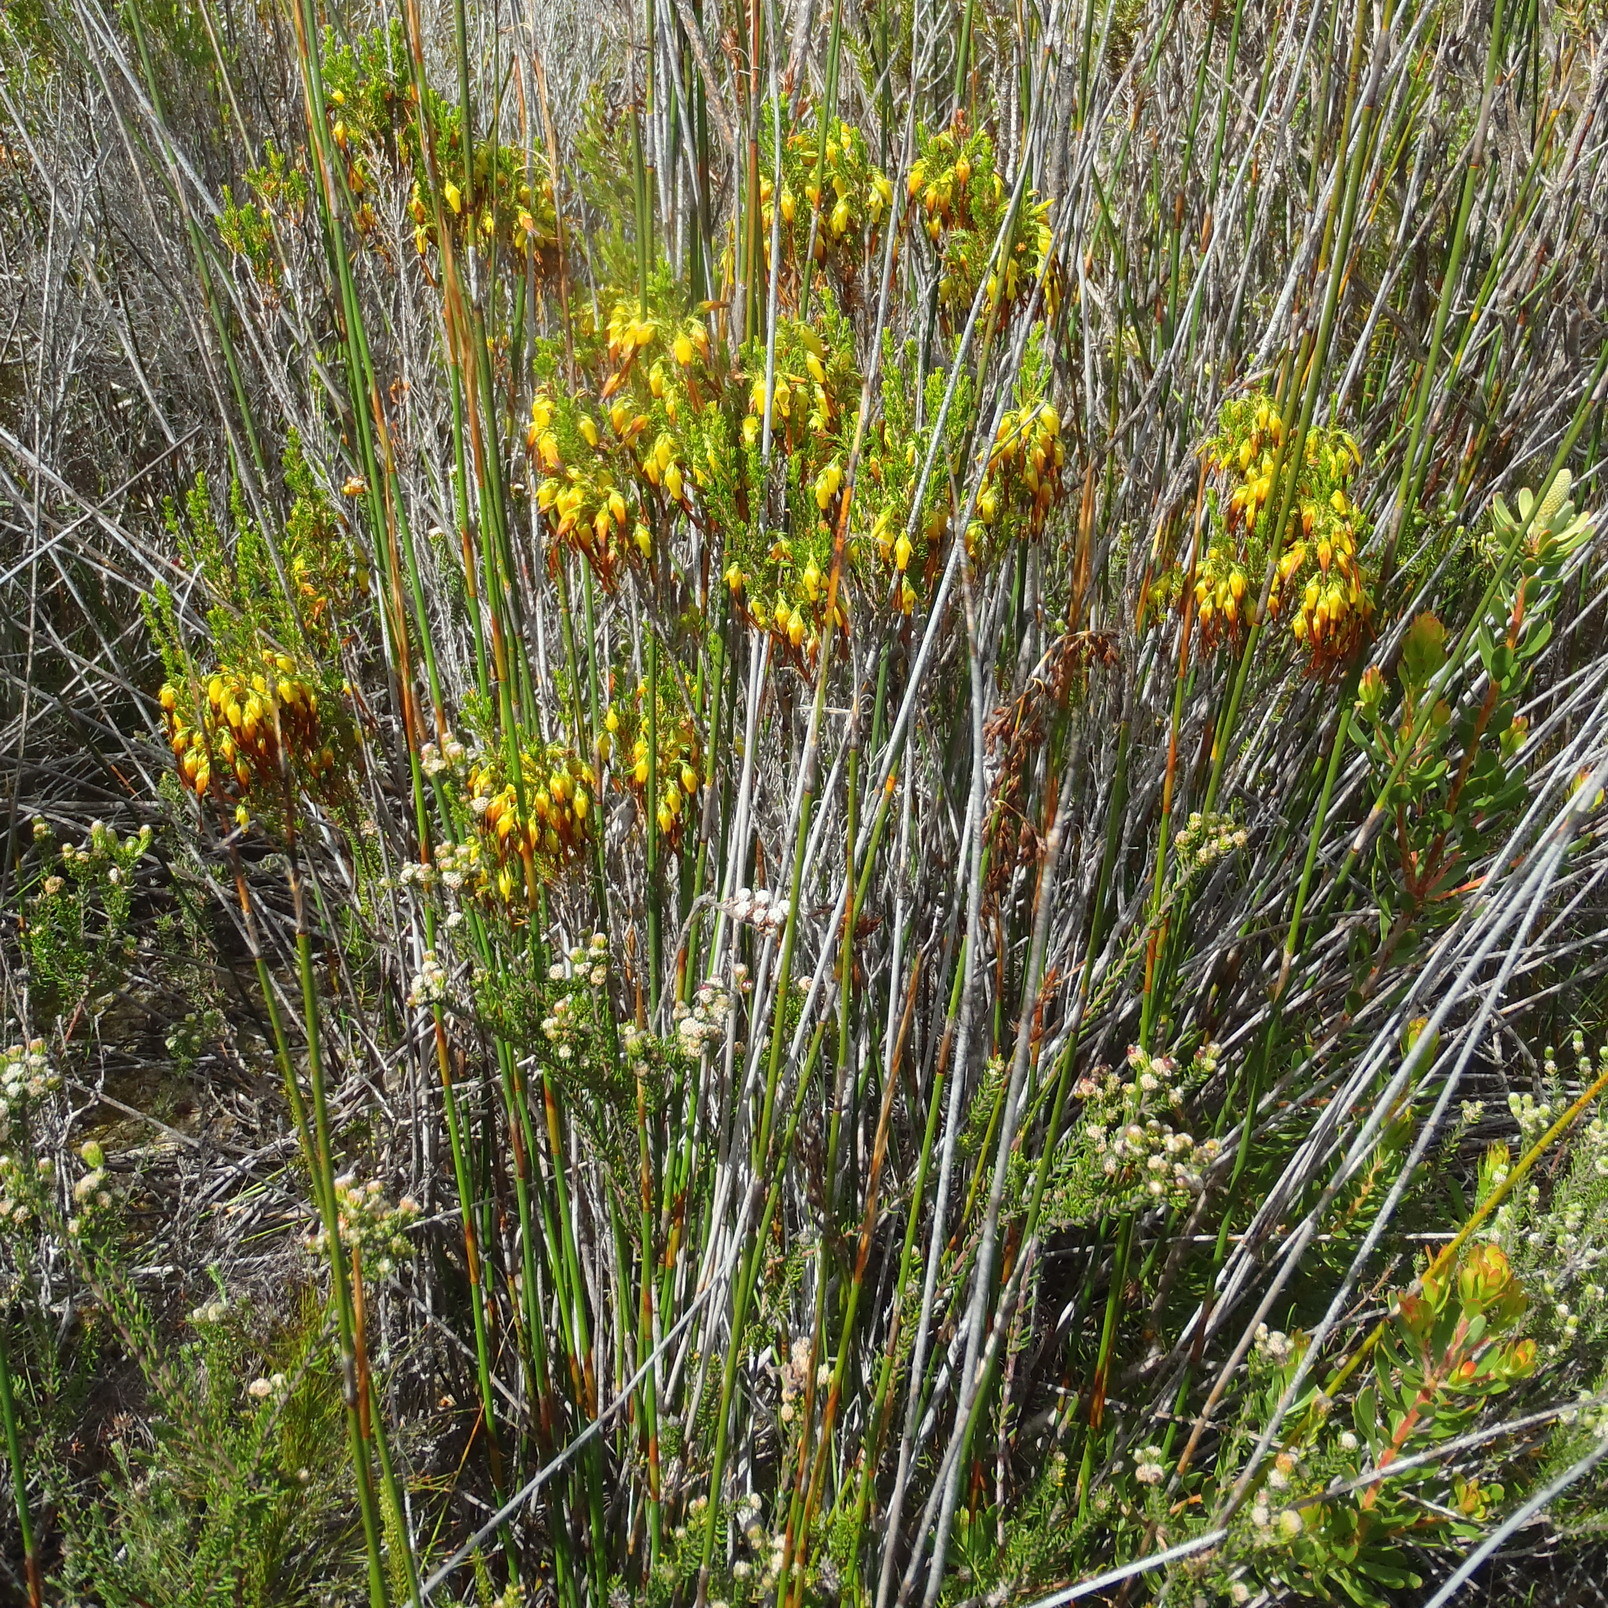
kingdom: Plantae
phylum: Tracheophyta
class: Magnoliopsida
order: Ericales
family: Ericaceae
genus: Erica
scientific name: Erica melastoma
